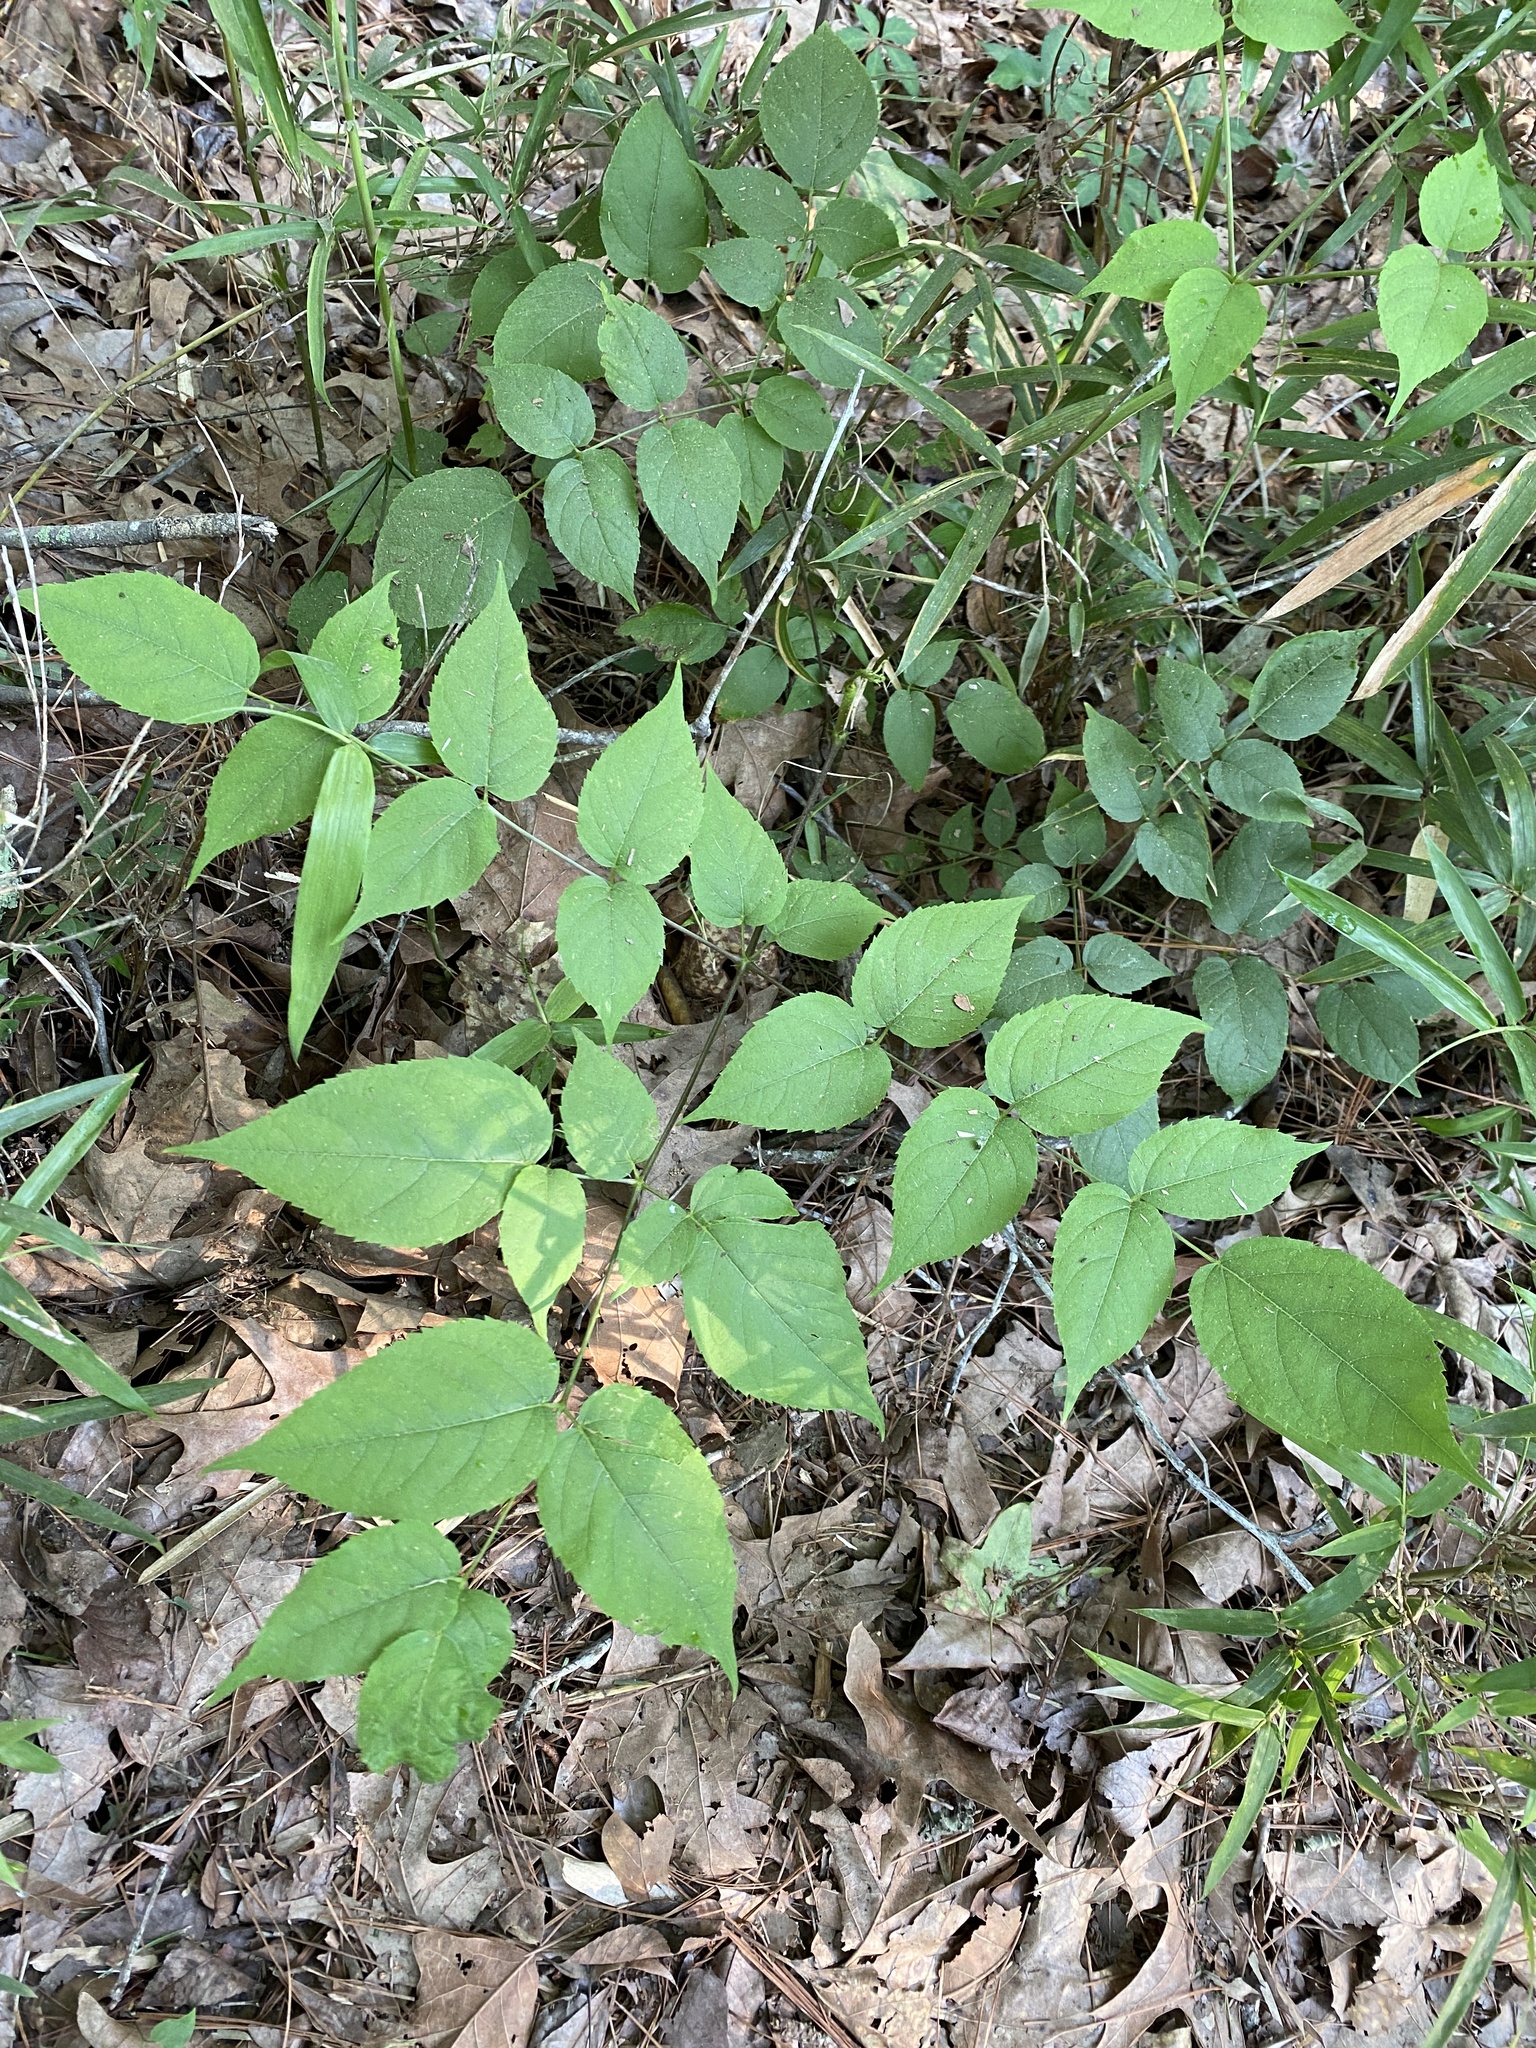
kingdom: Plantae
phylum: Tracheophyta
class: Magnoliopsida
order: Apiales
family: Araliaceae
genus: Aralia
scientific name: Aralia spinosa
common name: Hercules'-club
